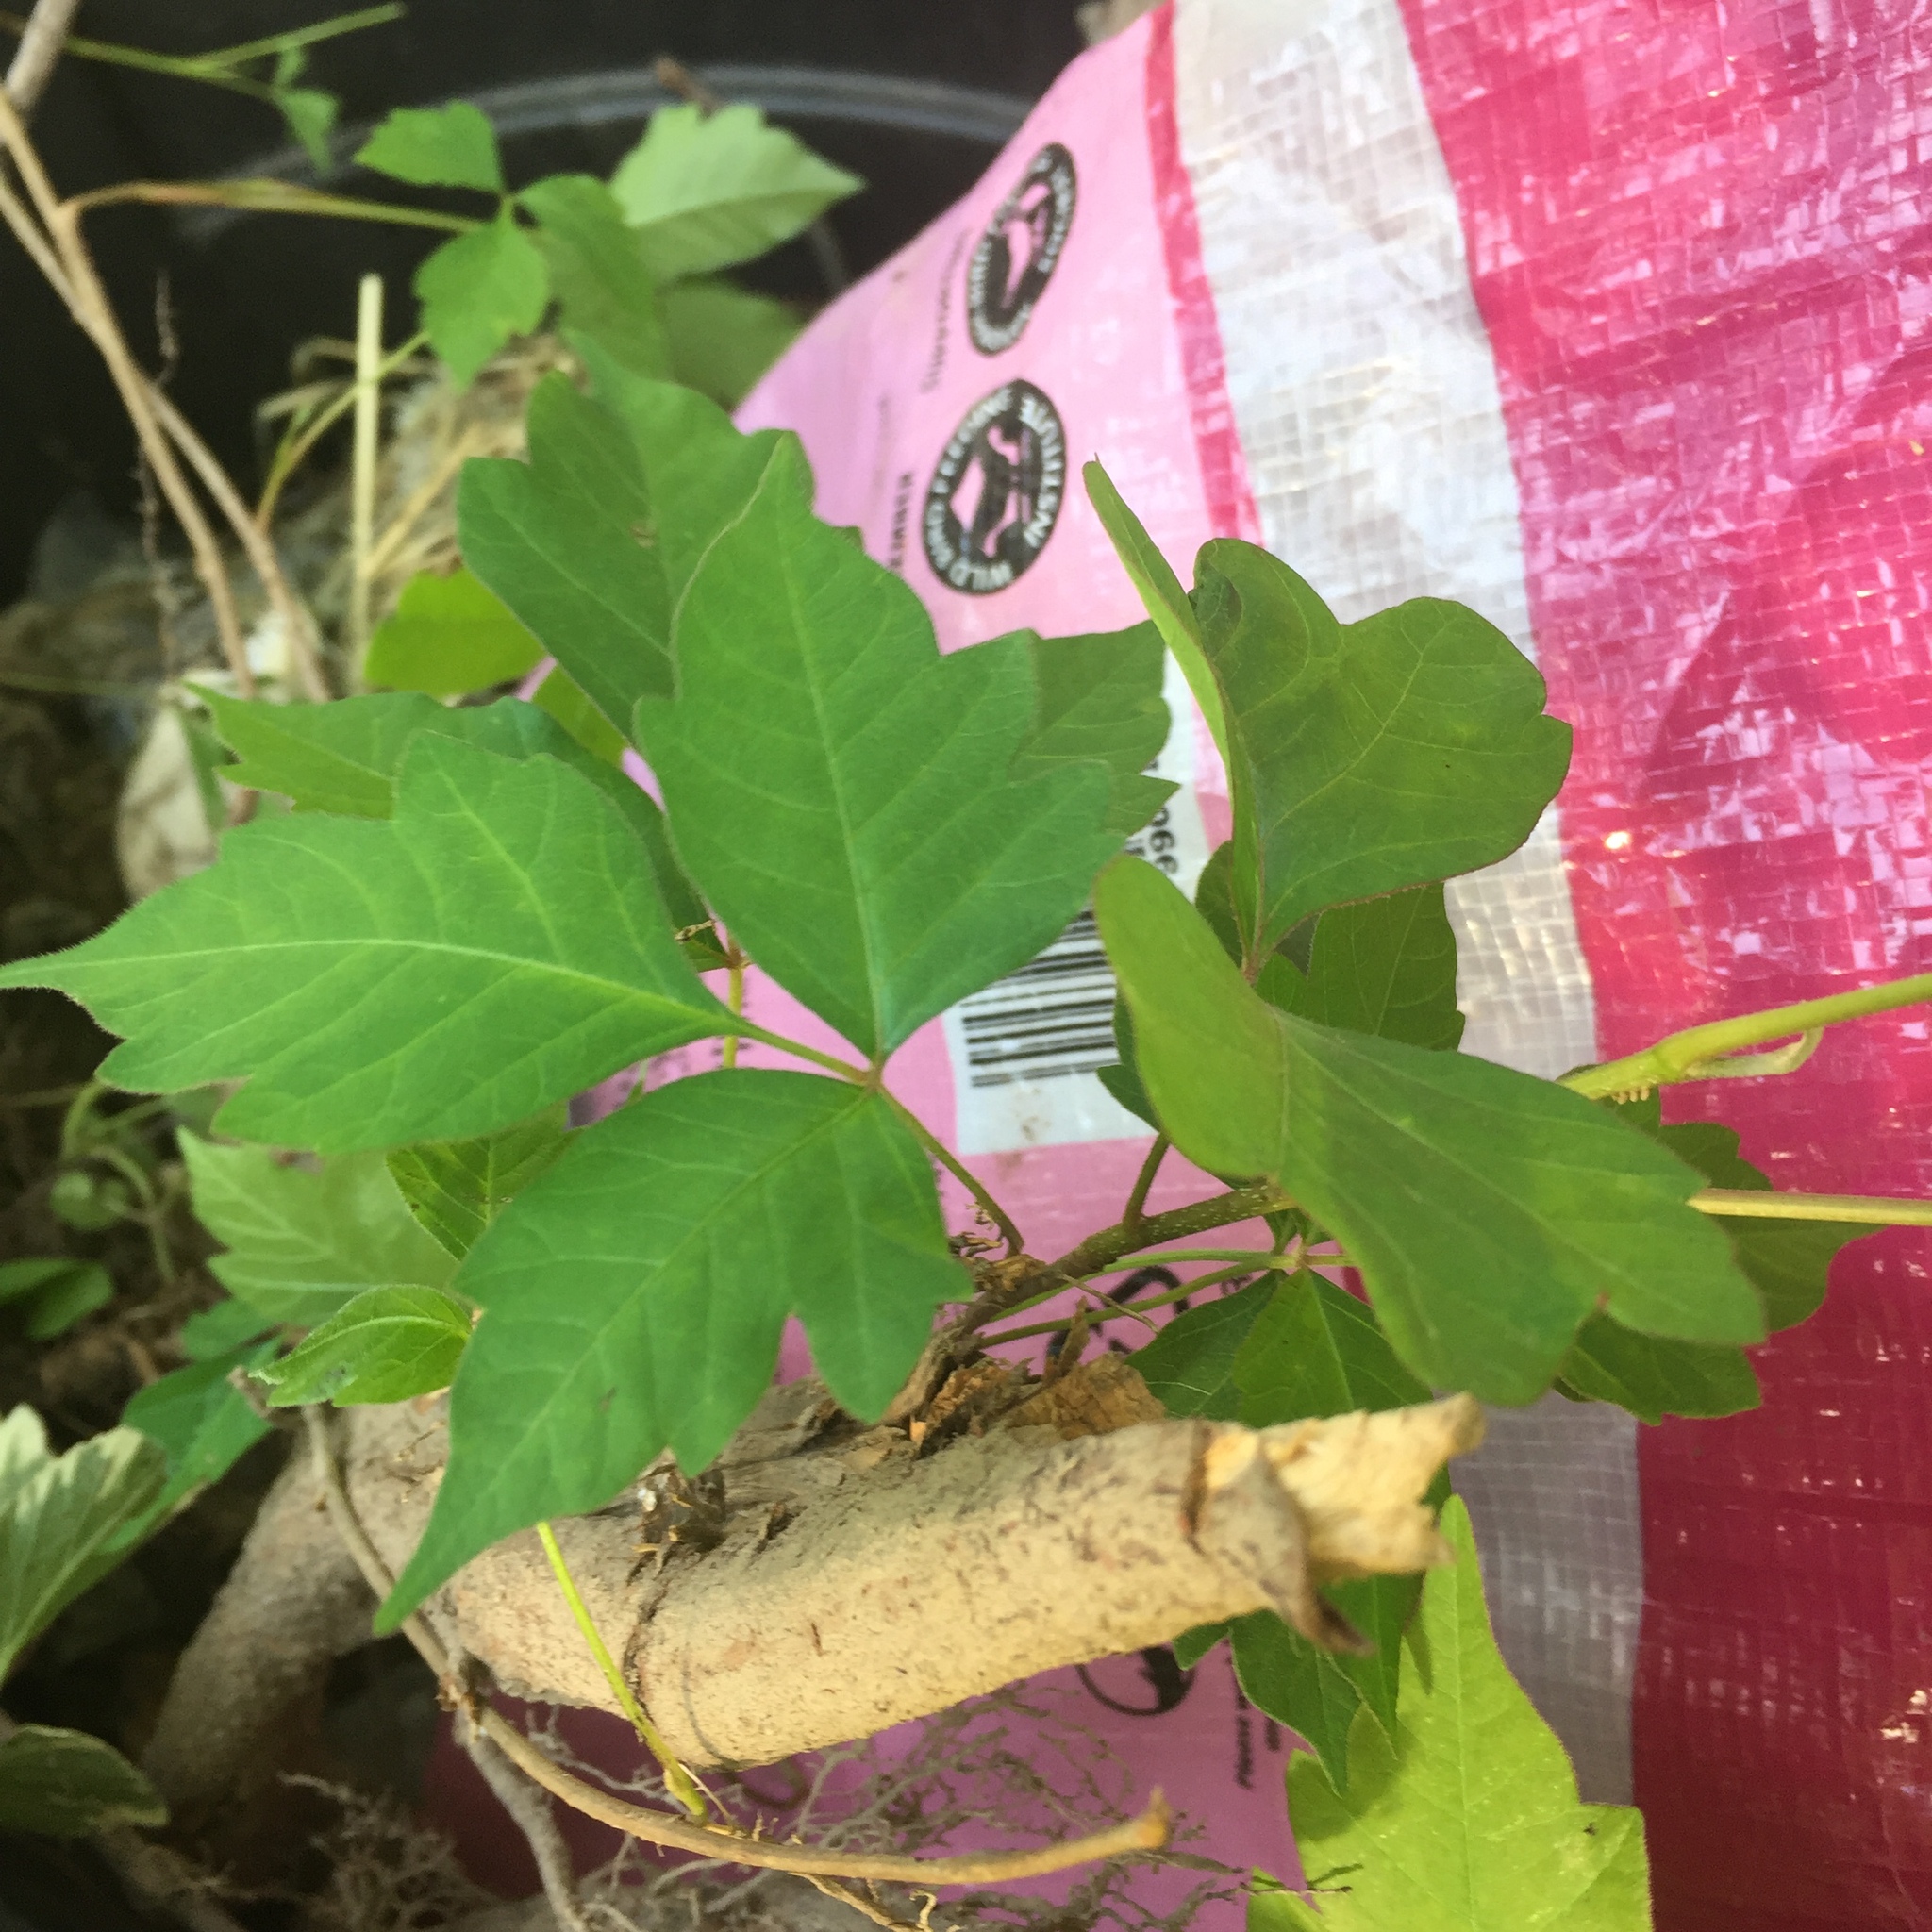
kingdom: Plantae
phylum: Tracheophyta
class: Magnoliopsida
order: Sapindales
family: Anacardiaceae
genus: Toxicodendron
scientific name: Toxicodendron radicans
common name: Poison ivy
